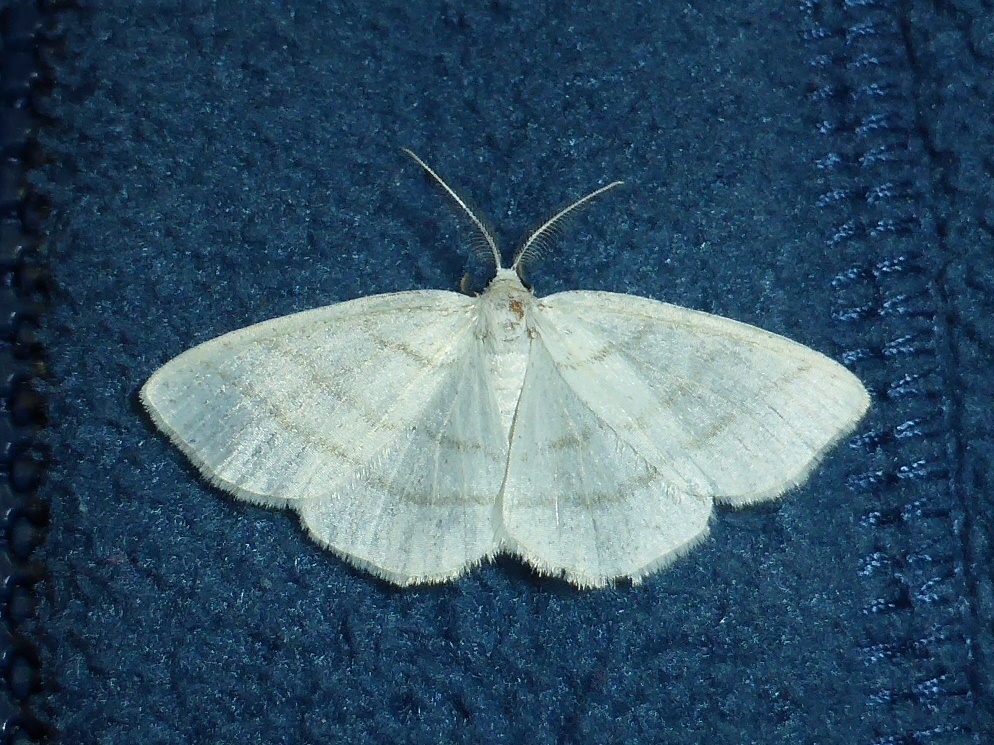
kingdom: Animalia
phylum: Arthropoda
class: Insecta
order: Lepidoptera
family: Geometridae
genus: Cabera
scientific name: Cabera pusaria
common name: Common white wave
